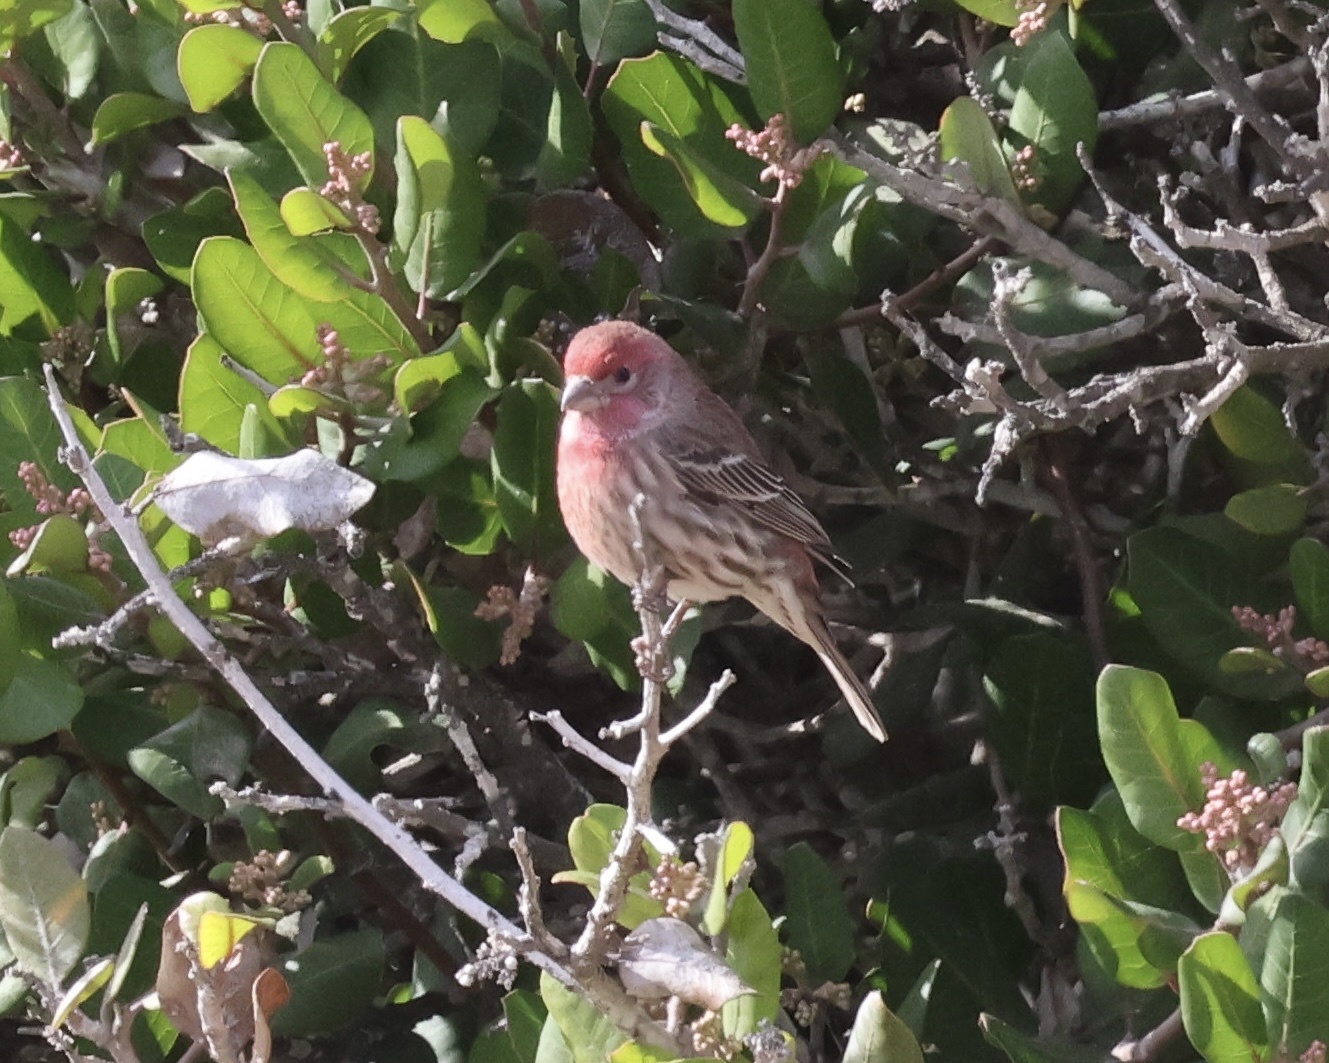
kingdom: Animalia
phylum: Chordata
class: Aves
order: Passeriformes
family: Fringillidae
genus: Haemorhous
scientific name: Haemorhous mexicanus
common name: House finch
